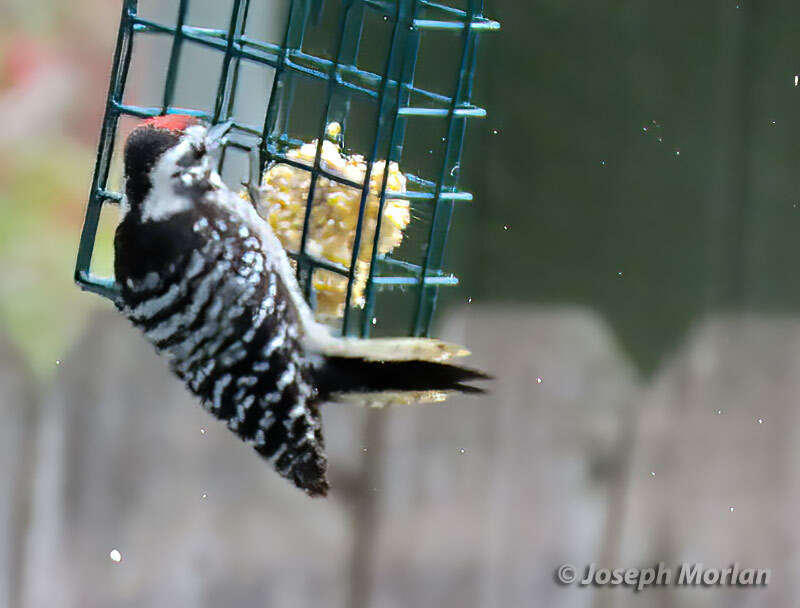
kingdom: Animalia
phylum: Chordata
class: Aves
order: Piciformes
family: Picidae
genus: Dryobates
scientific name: Dryobates nuttallii
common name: Nuttall's woodpecker
